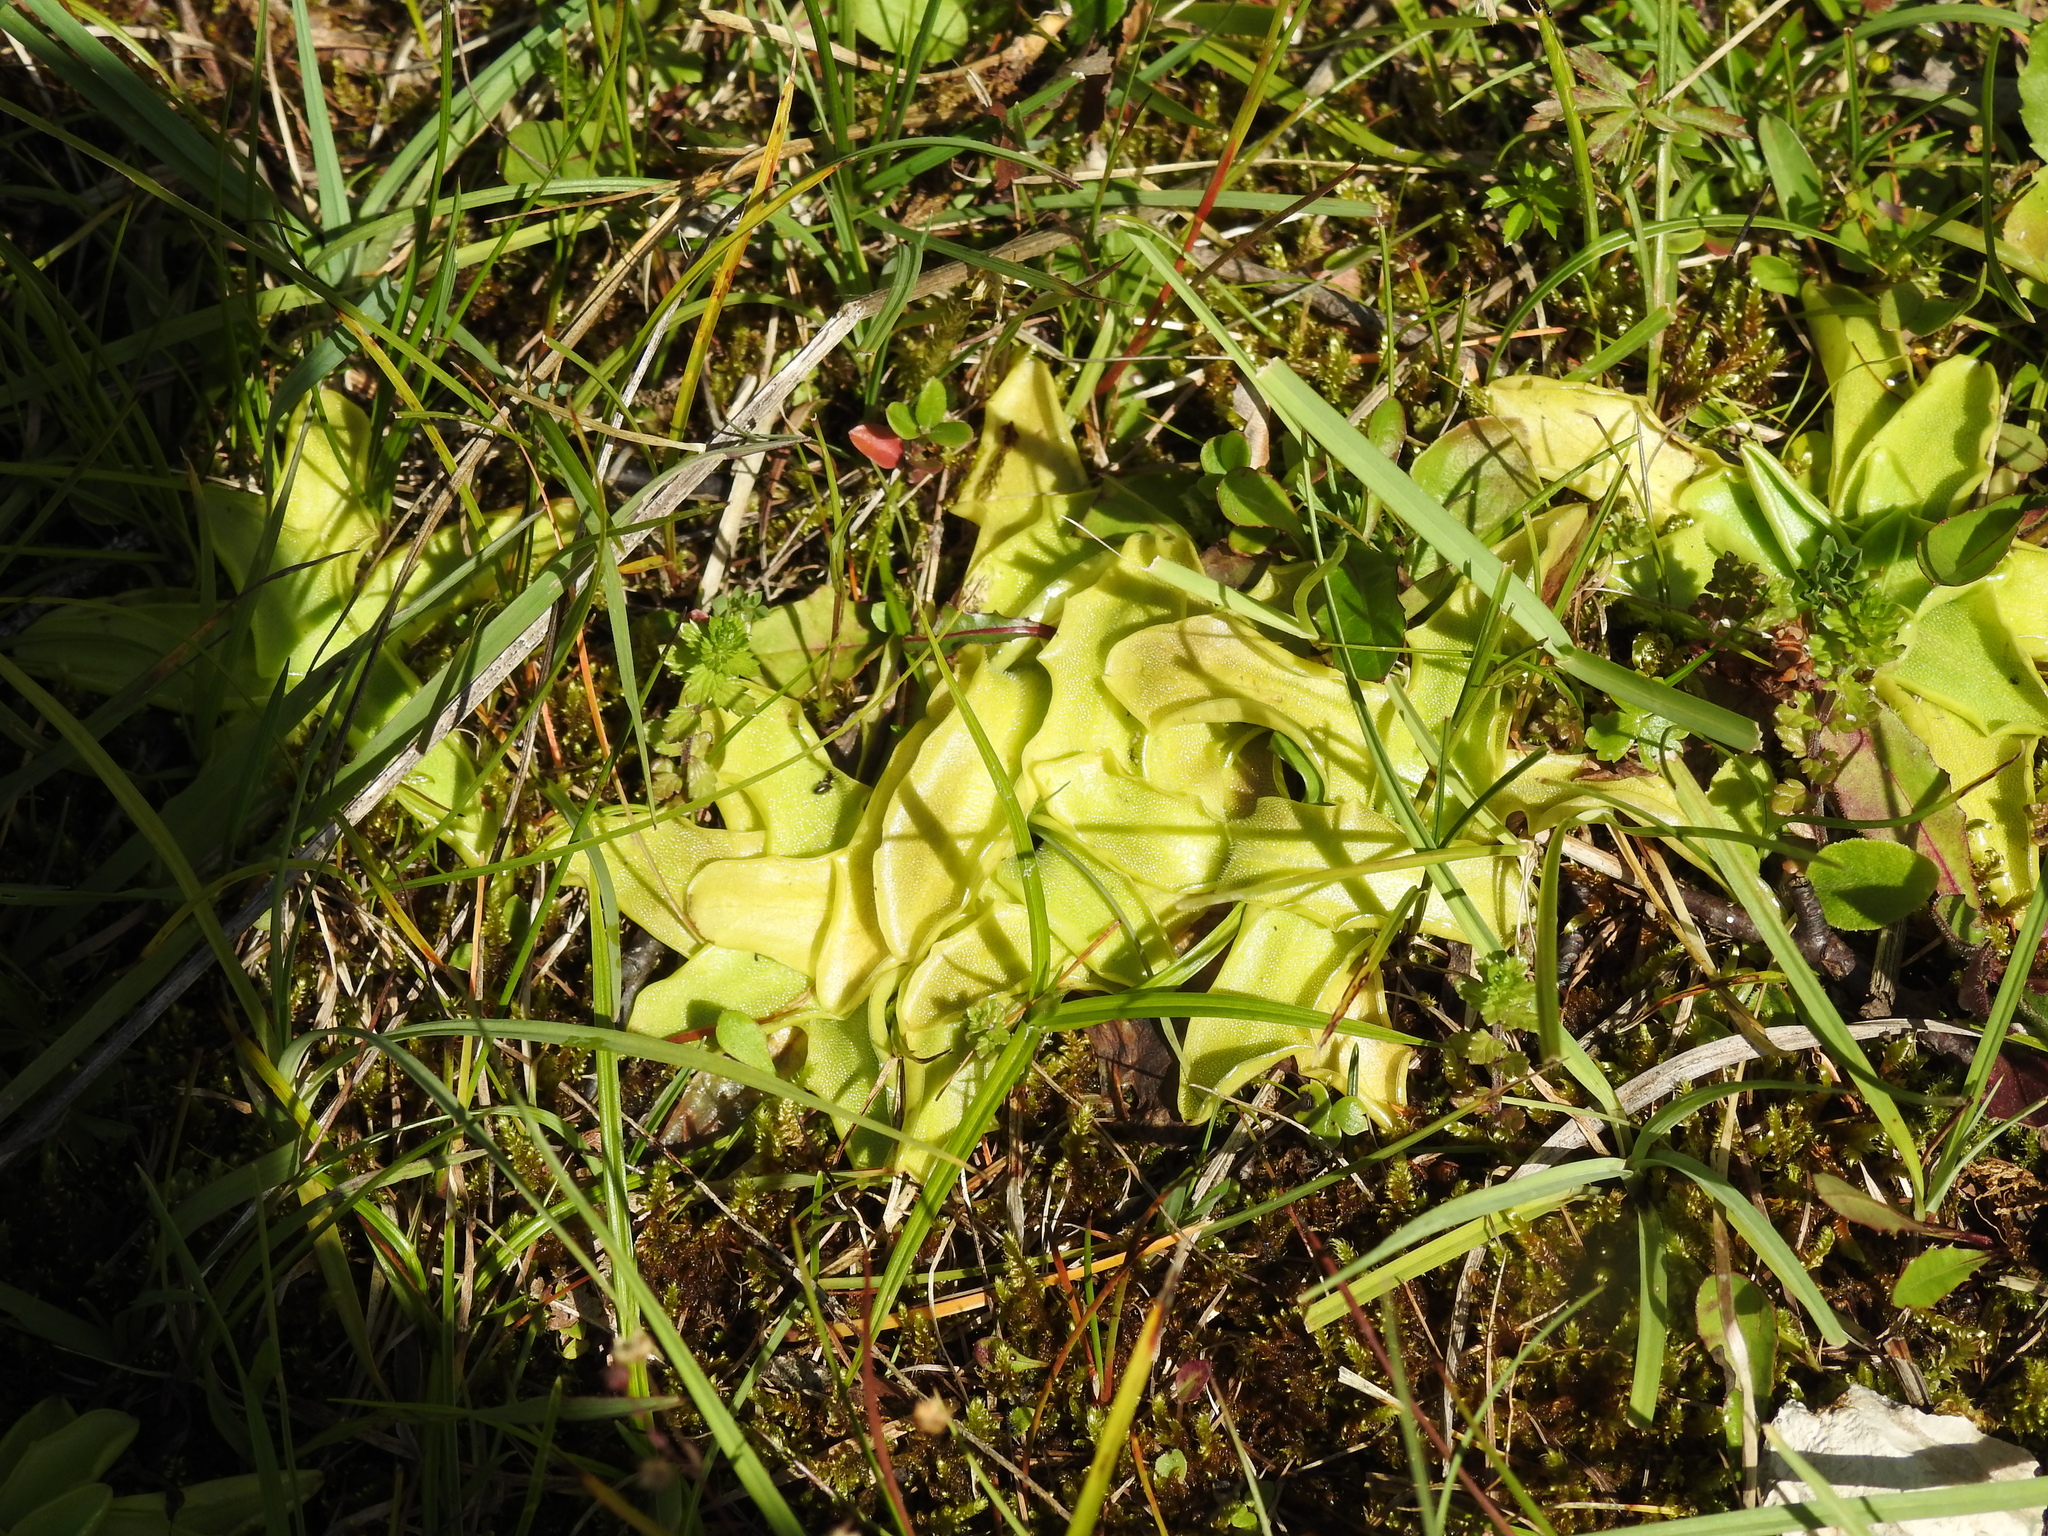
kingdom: Plantae
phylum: Tracheophyta
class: Magnoliopsida
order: Lamiales
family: Lentibulariaceae
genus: Pinguicula
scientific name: Pinguicula vulgaris
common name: Common butterwort
